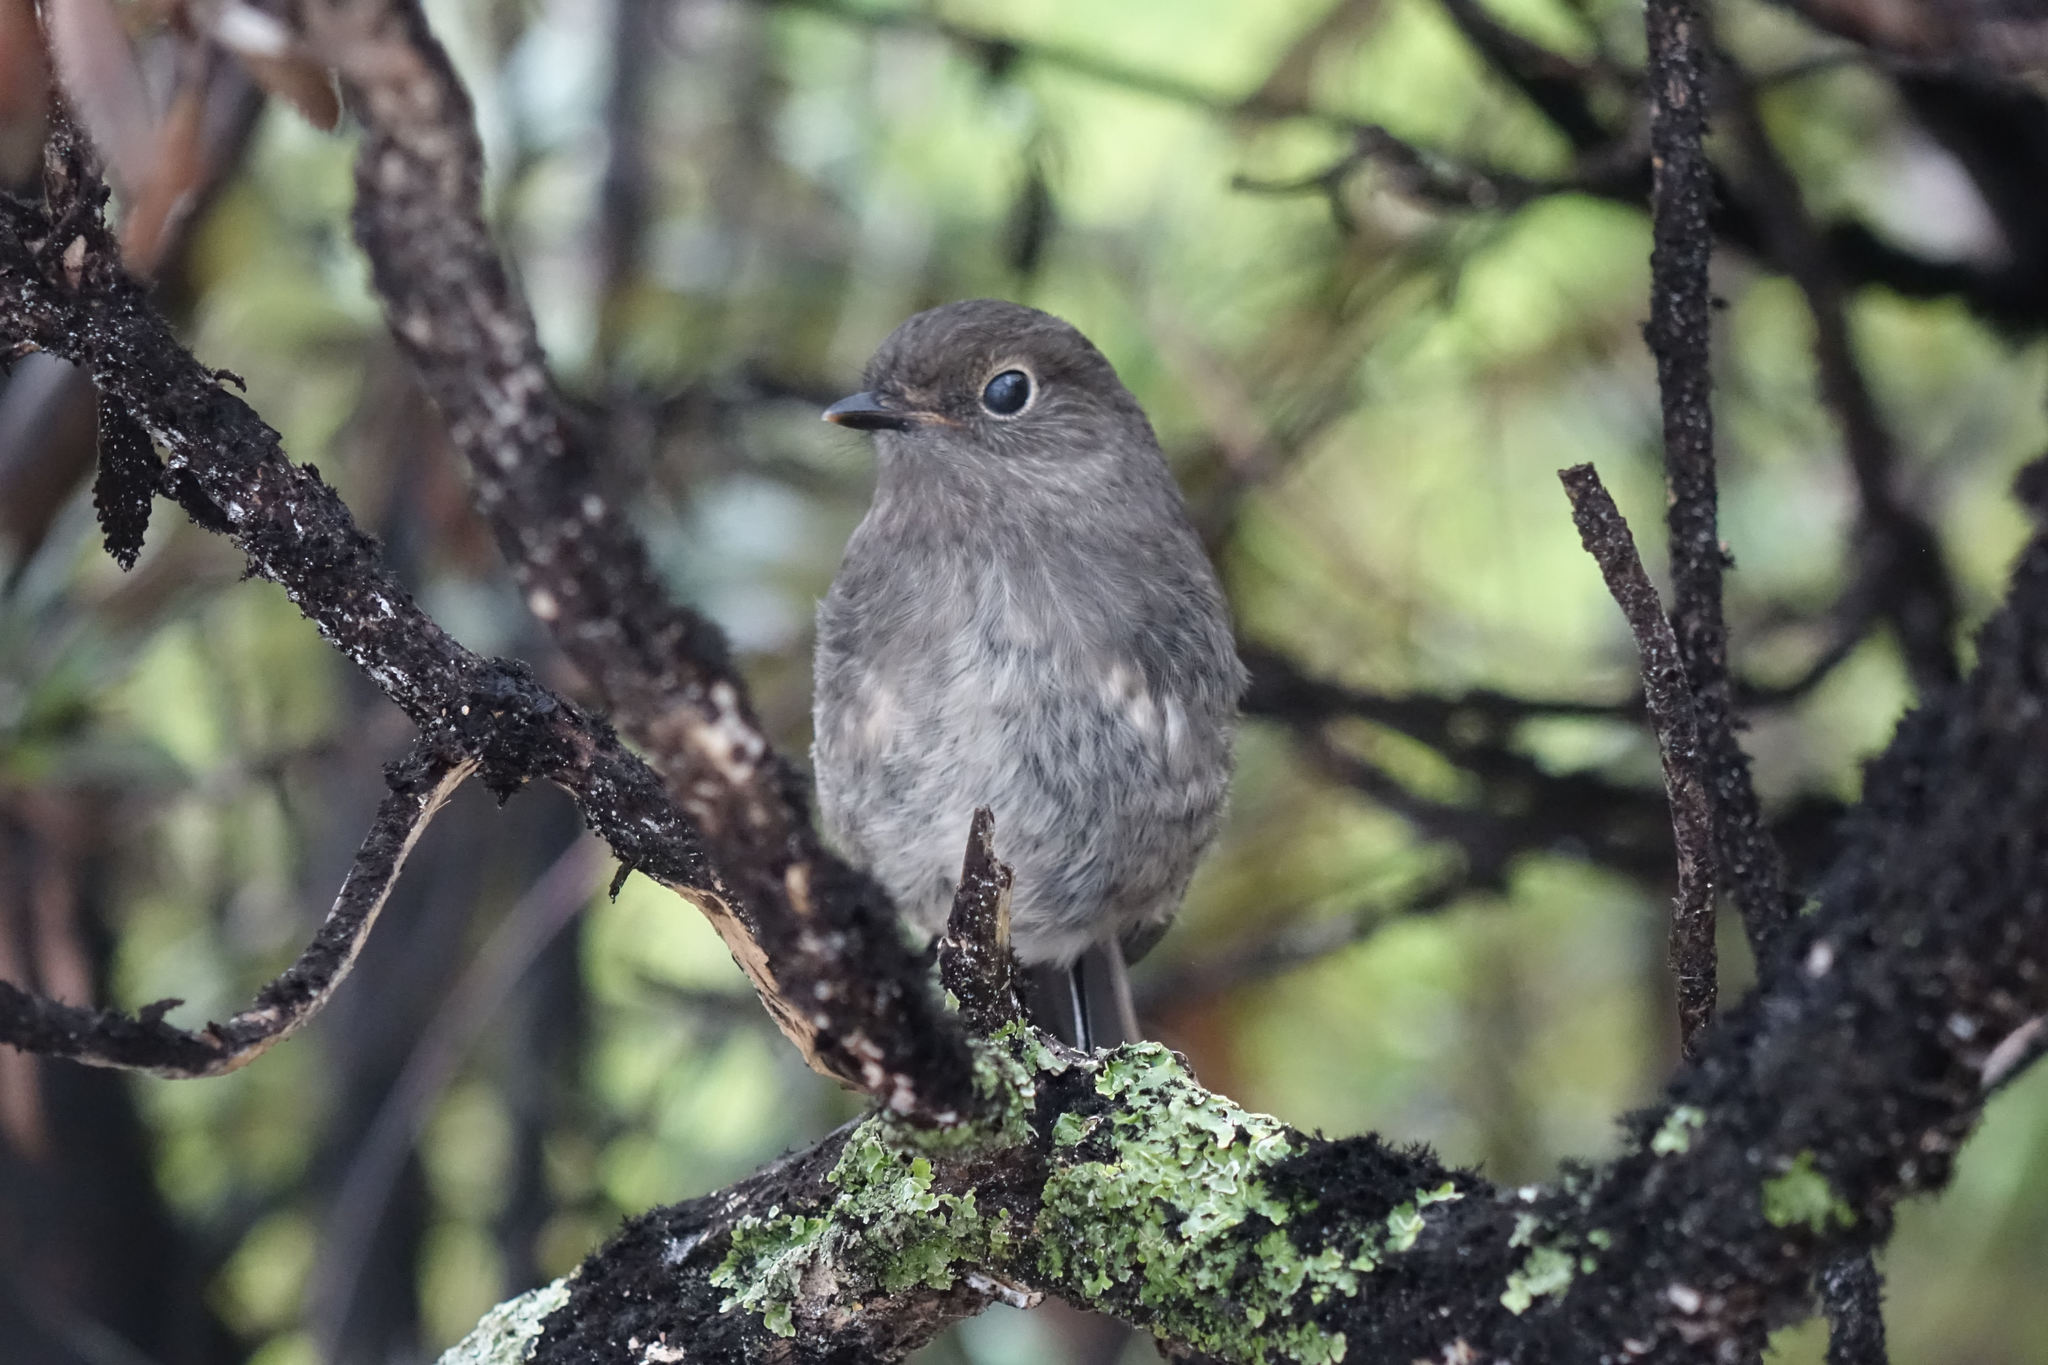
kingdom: Animalia
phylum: Chordata
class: Aves
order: Passeriformes
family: Petroicidae
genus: Petroica
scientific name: Petroica australis
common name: New zealand robin
